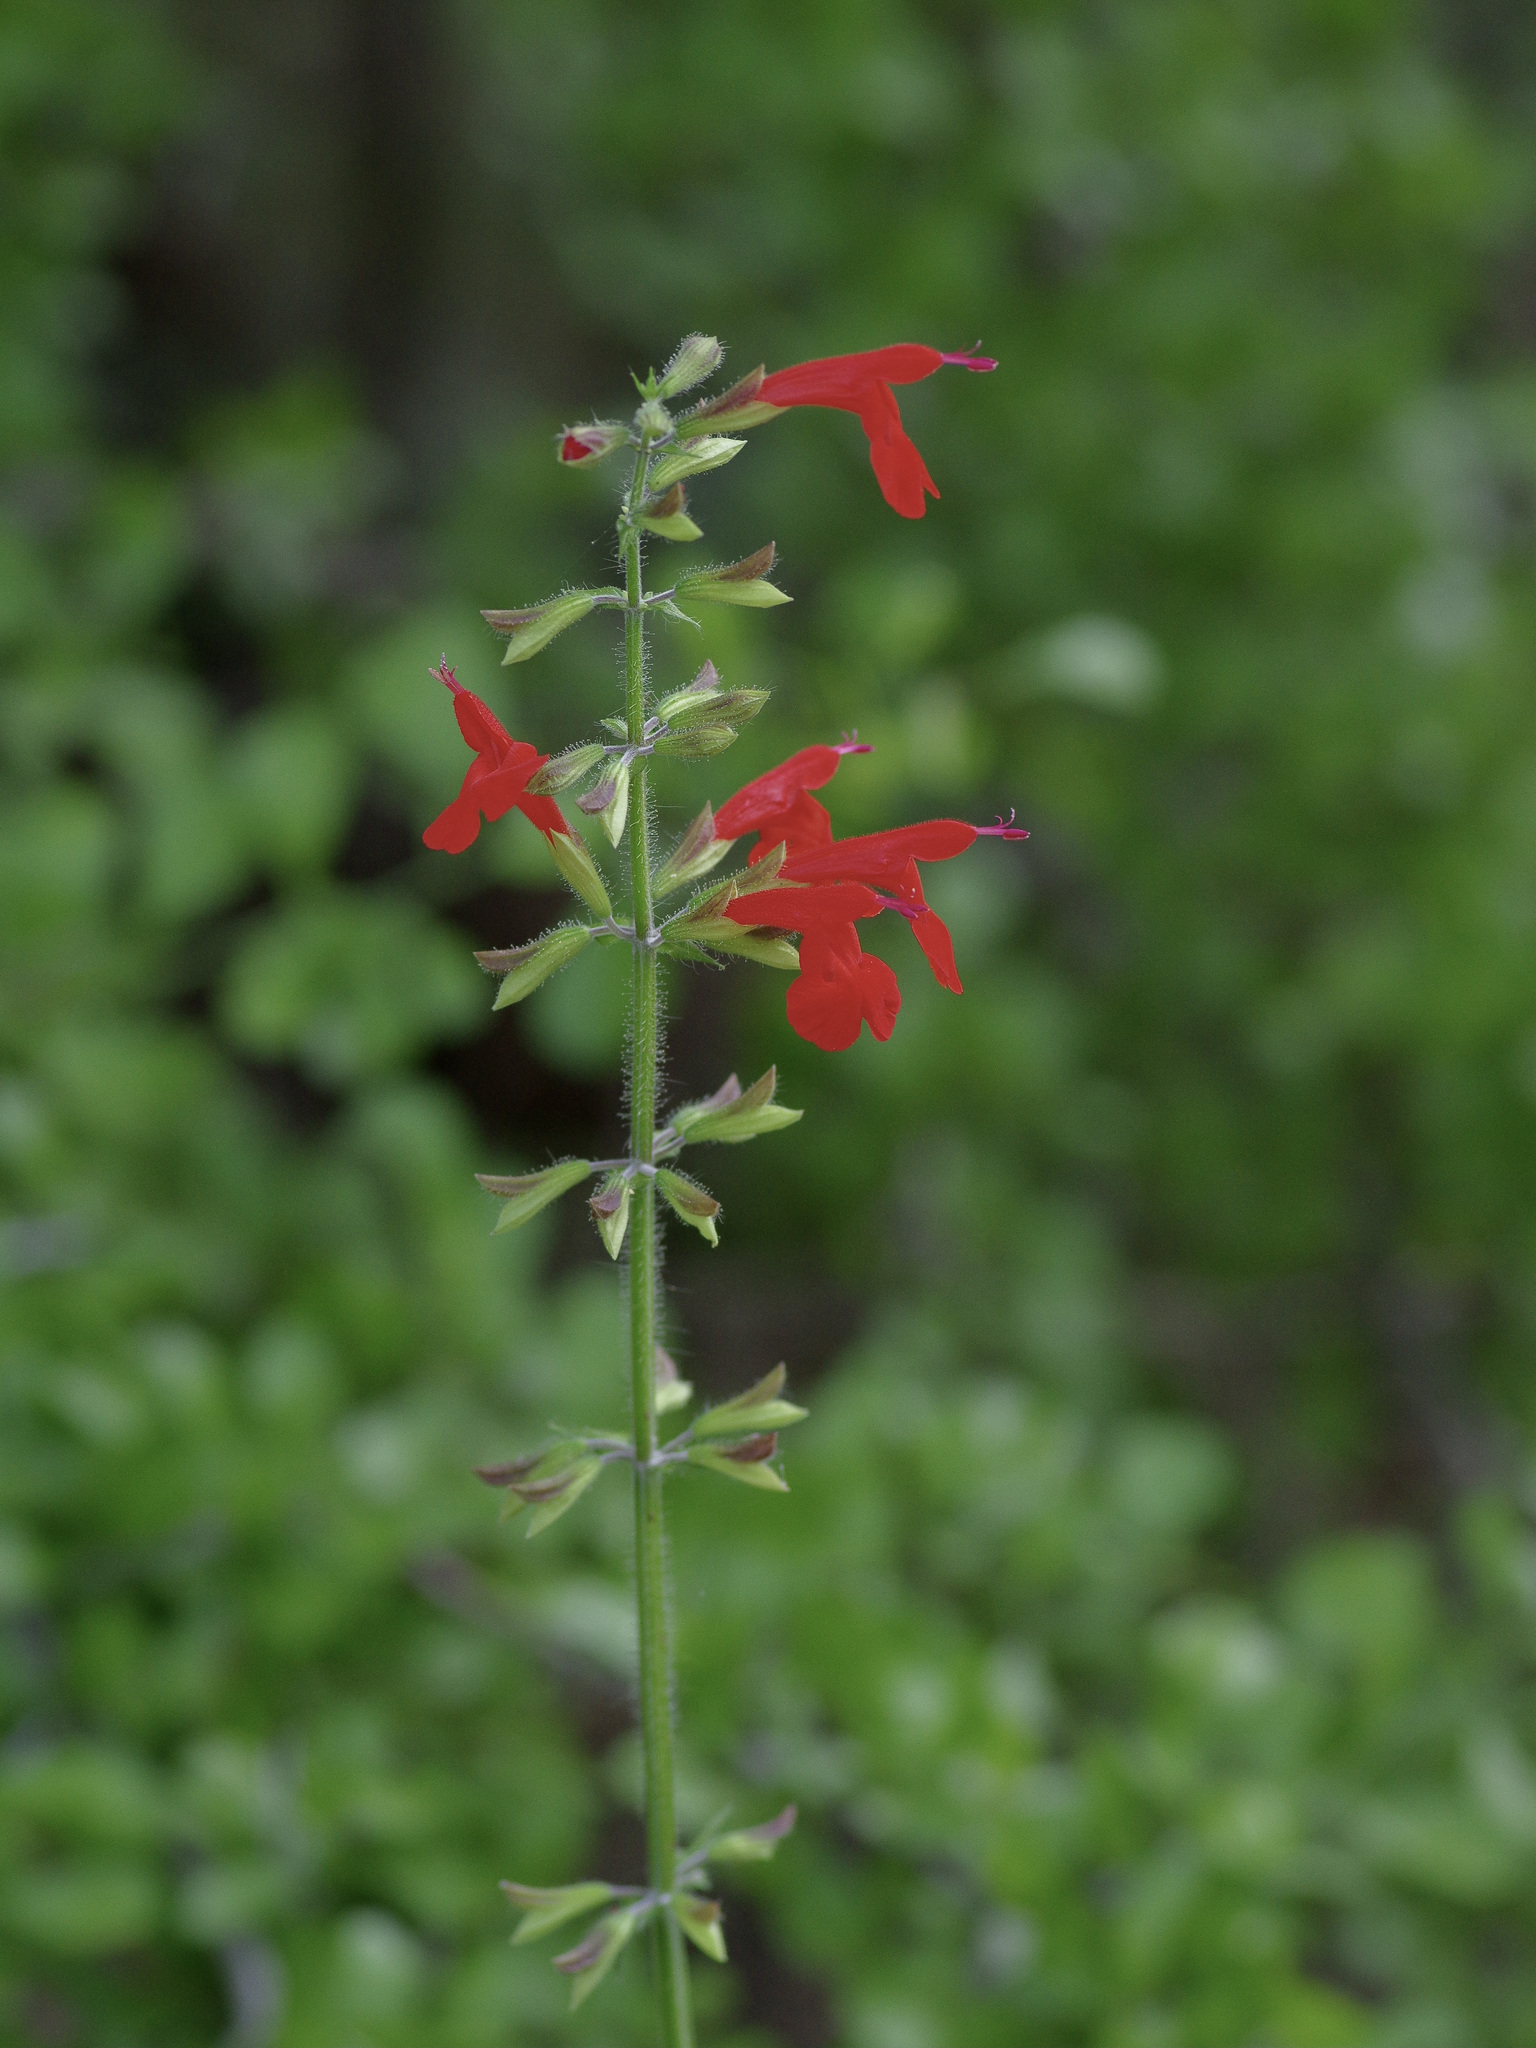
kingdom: Plantae
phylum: Tracheophyta
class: Magnoliopsida
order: Lamiales
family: Lamiaceae
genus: Salvia
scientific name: Salvia coccinea
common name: Blood sage
